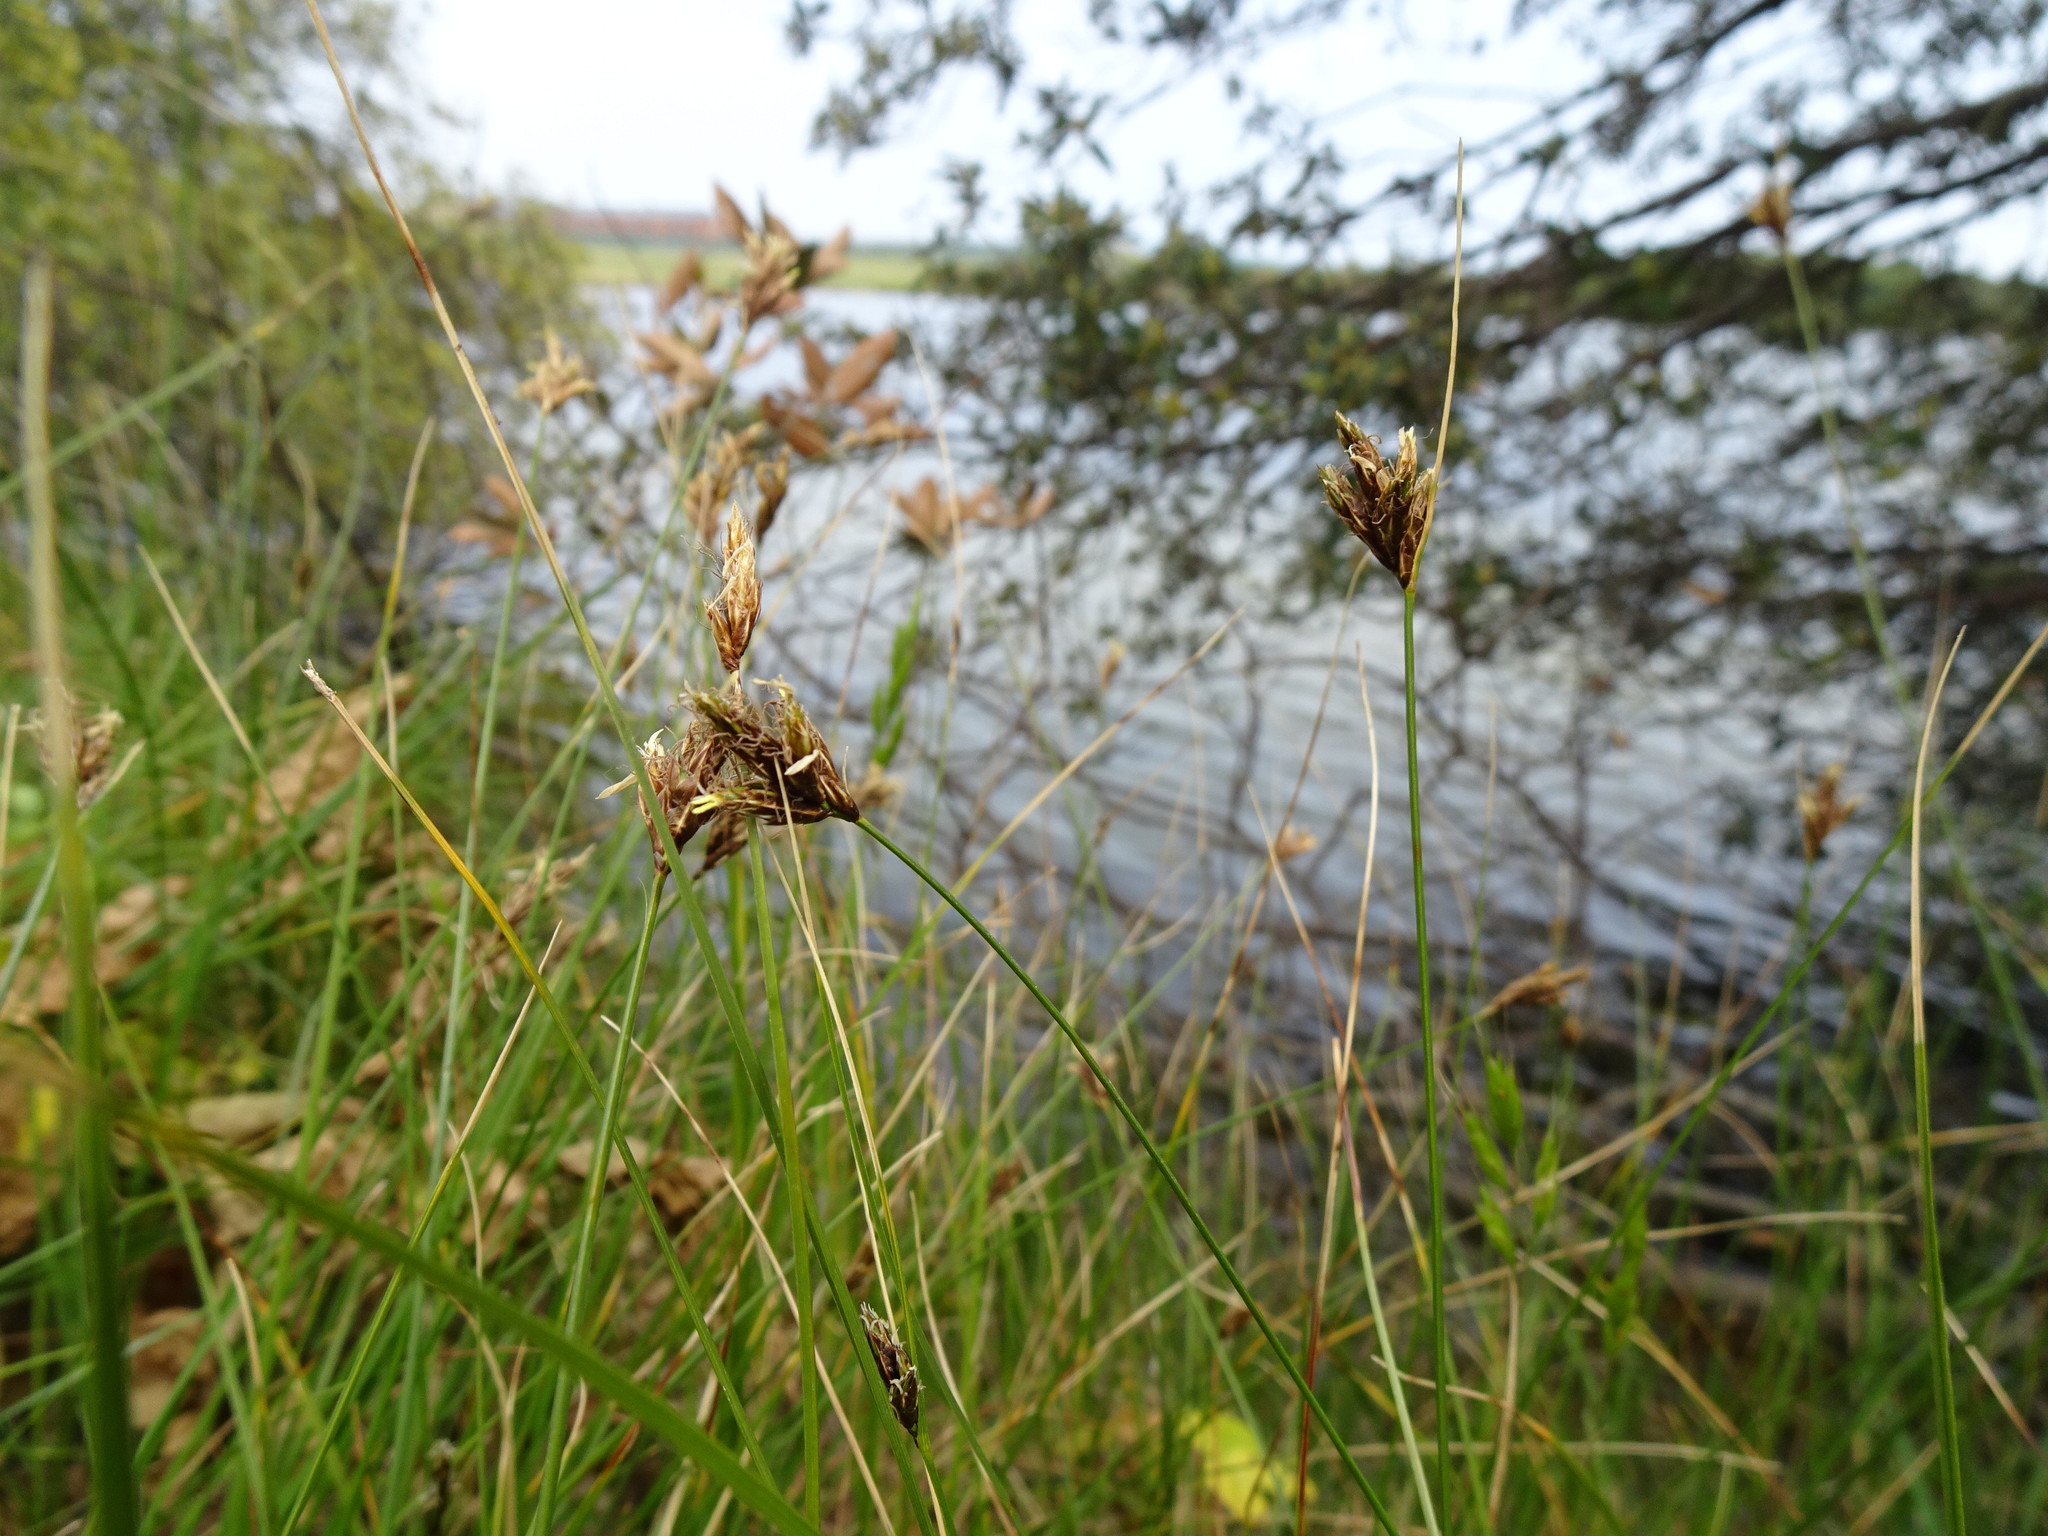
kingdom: Plantae
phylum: Tracheophyta
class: Liliopsida
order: Poales
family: Cyperaceae
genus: Carex
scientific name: Carex divisa
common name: Divided sedge
